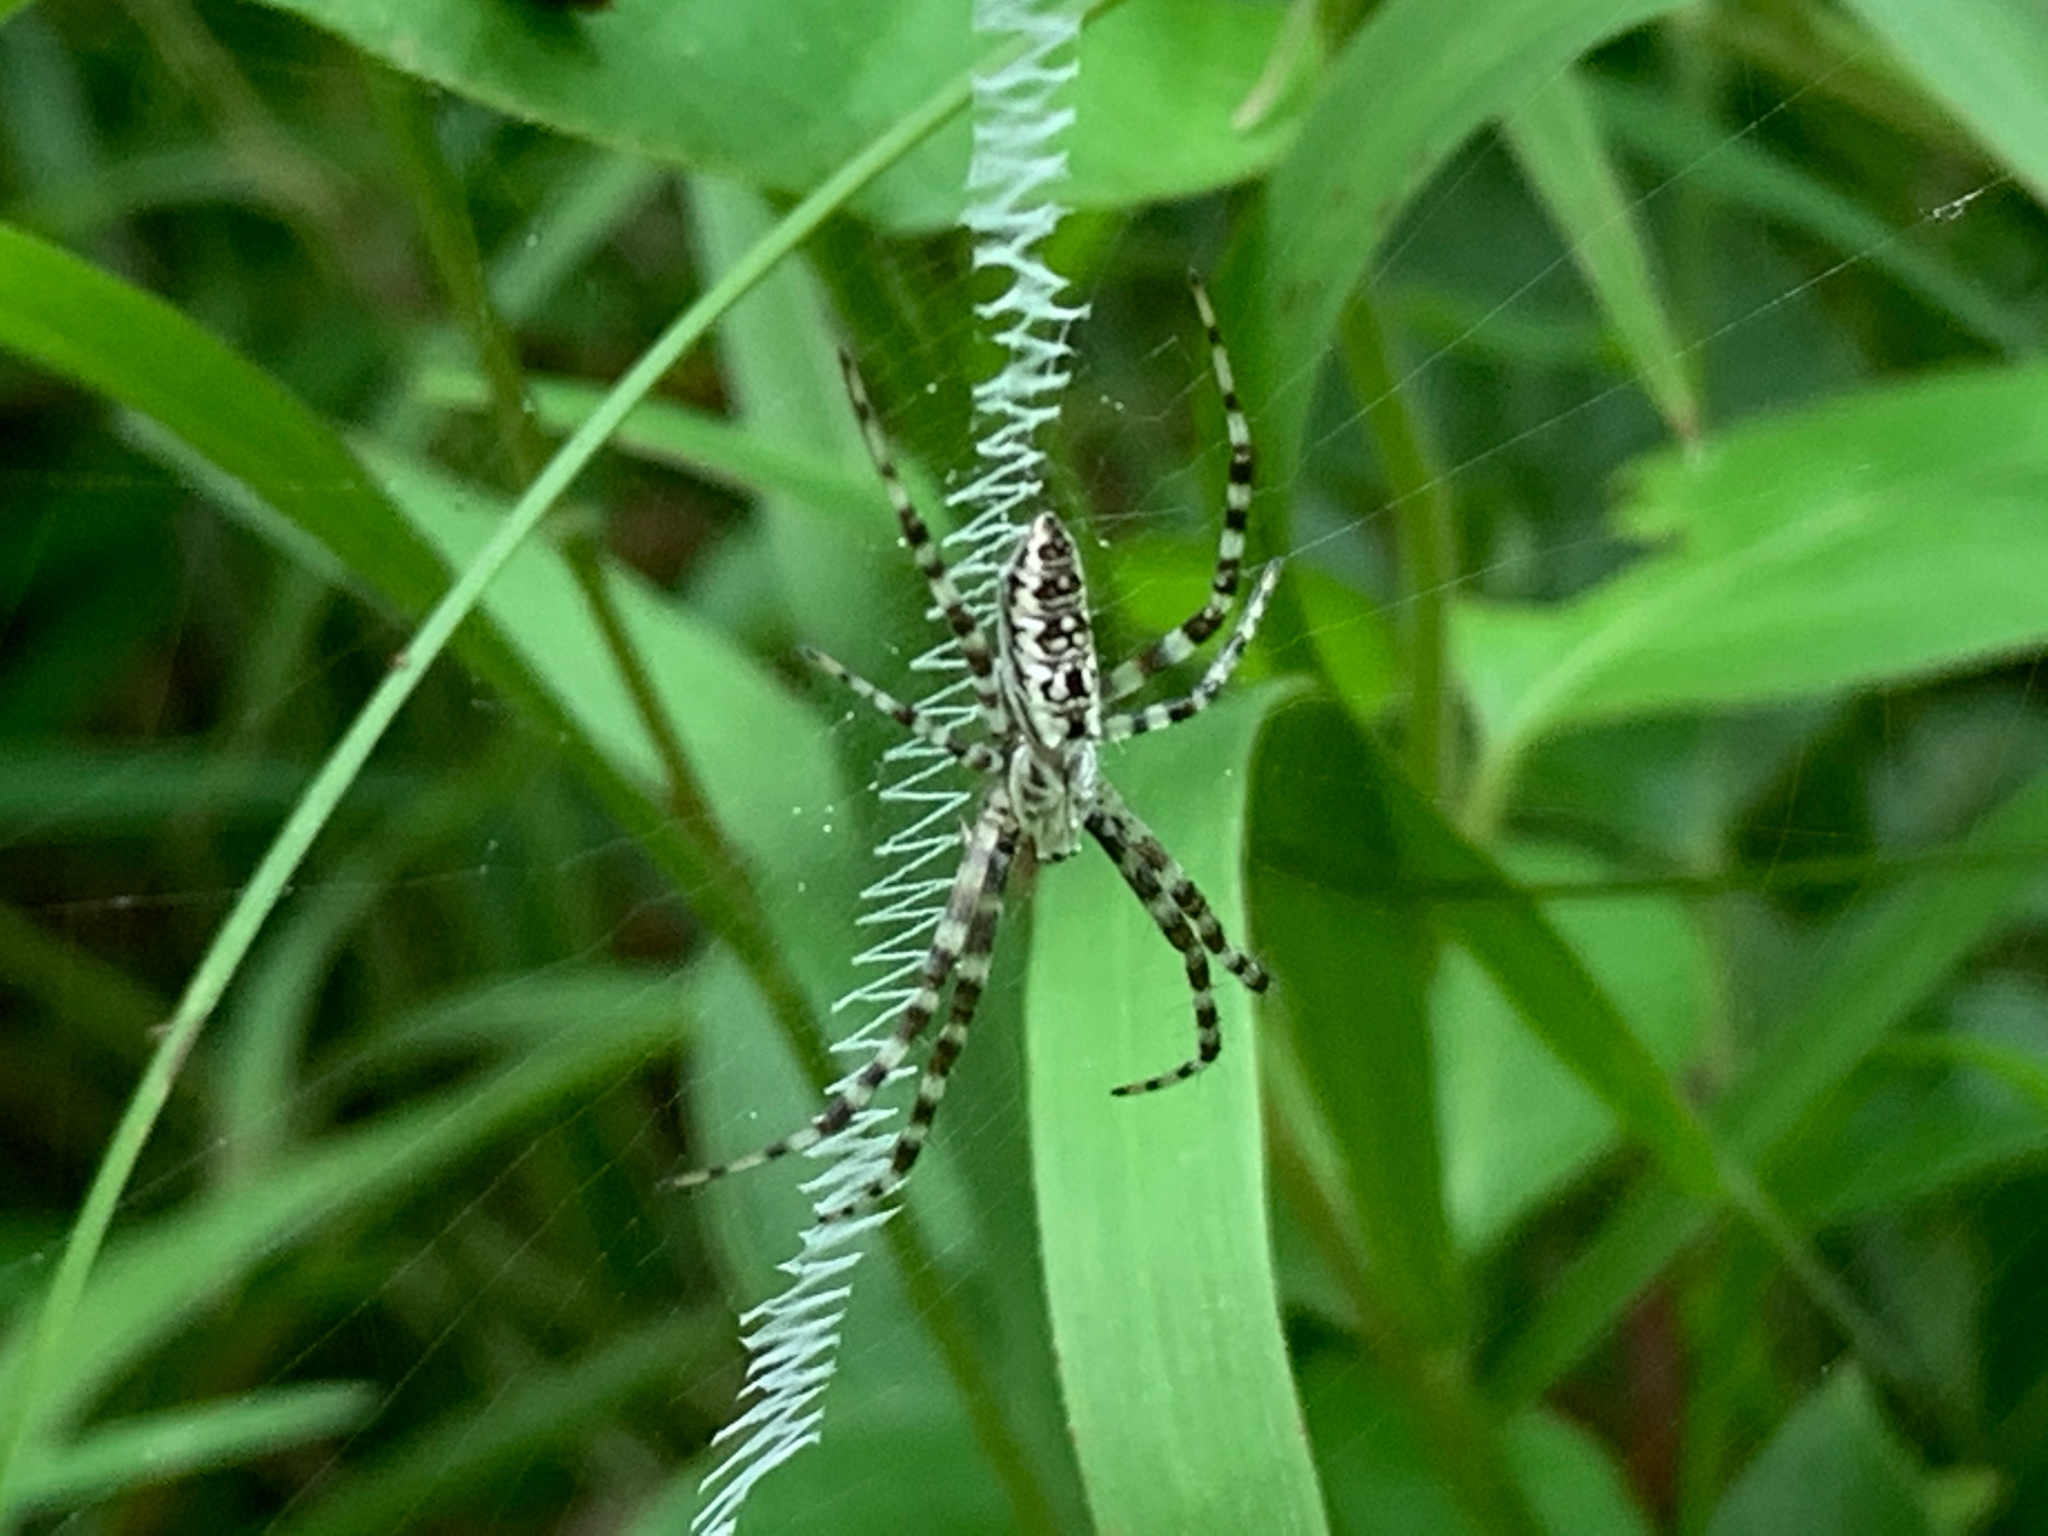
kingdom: Animalia
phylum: Arthropoda
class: Arachnida
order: Araneae
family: Araneidae
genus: Argiope
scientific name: Argiope aurantia
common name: Orb weavers
